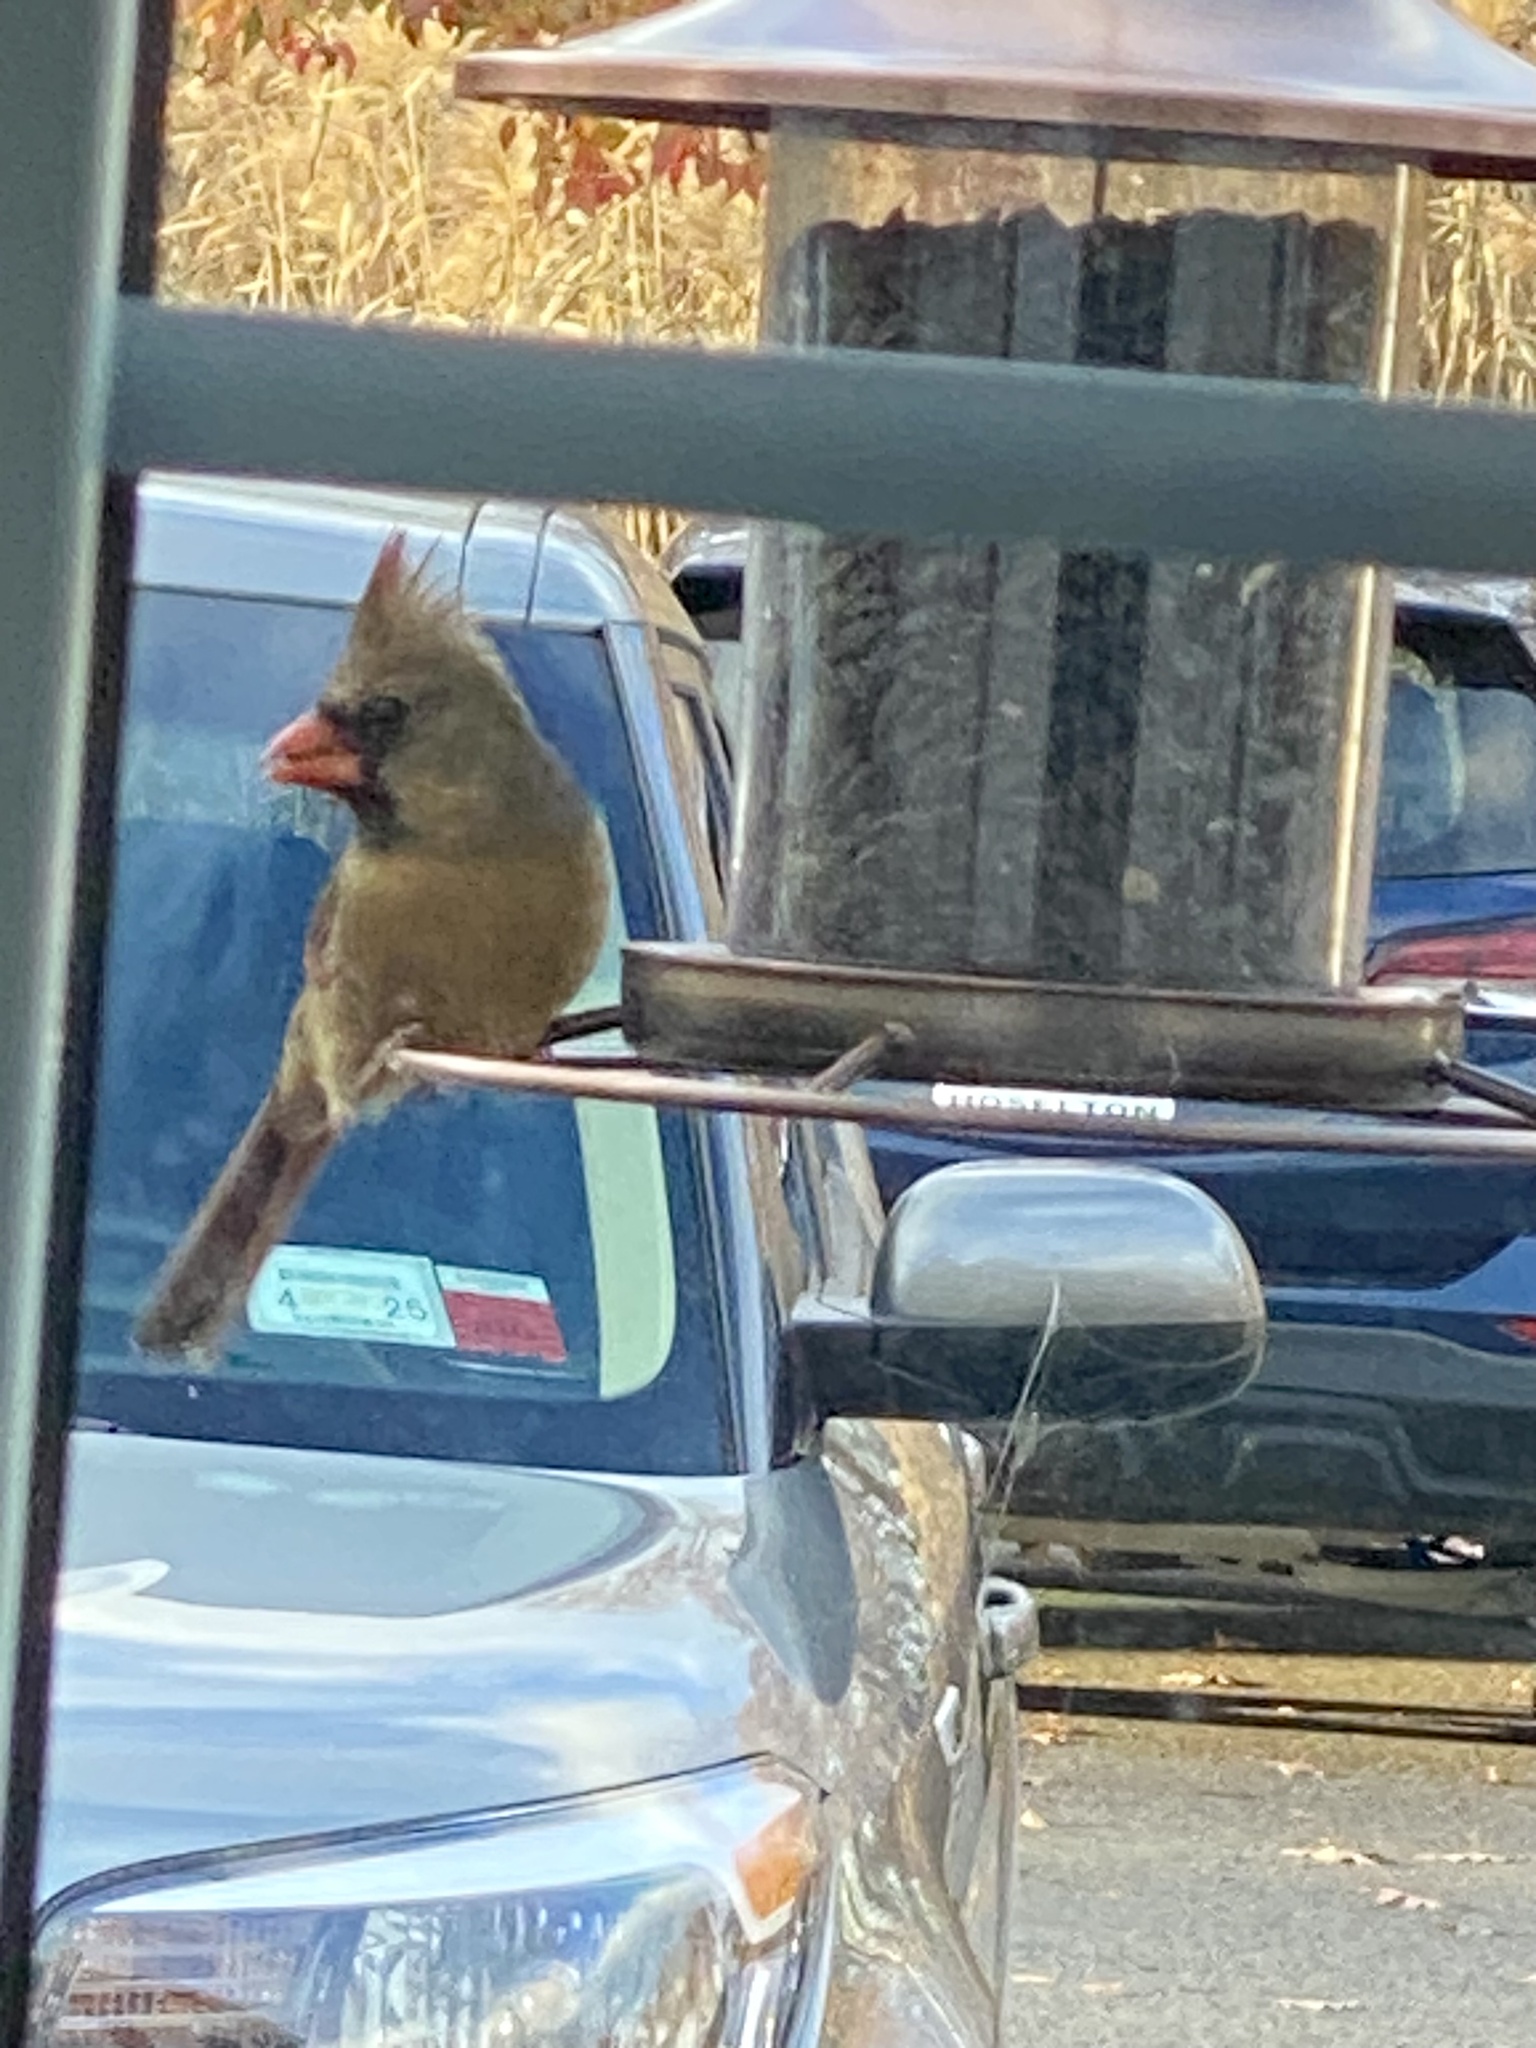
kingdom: Animalia
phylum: Chordata
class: Aves
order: Passeriformes
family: Cardinalidae
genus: Cardinalis
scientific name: Cardinalis cardinalis
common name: Northern cardinal
